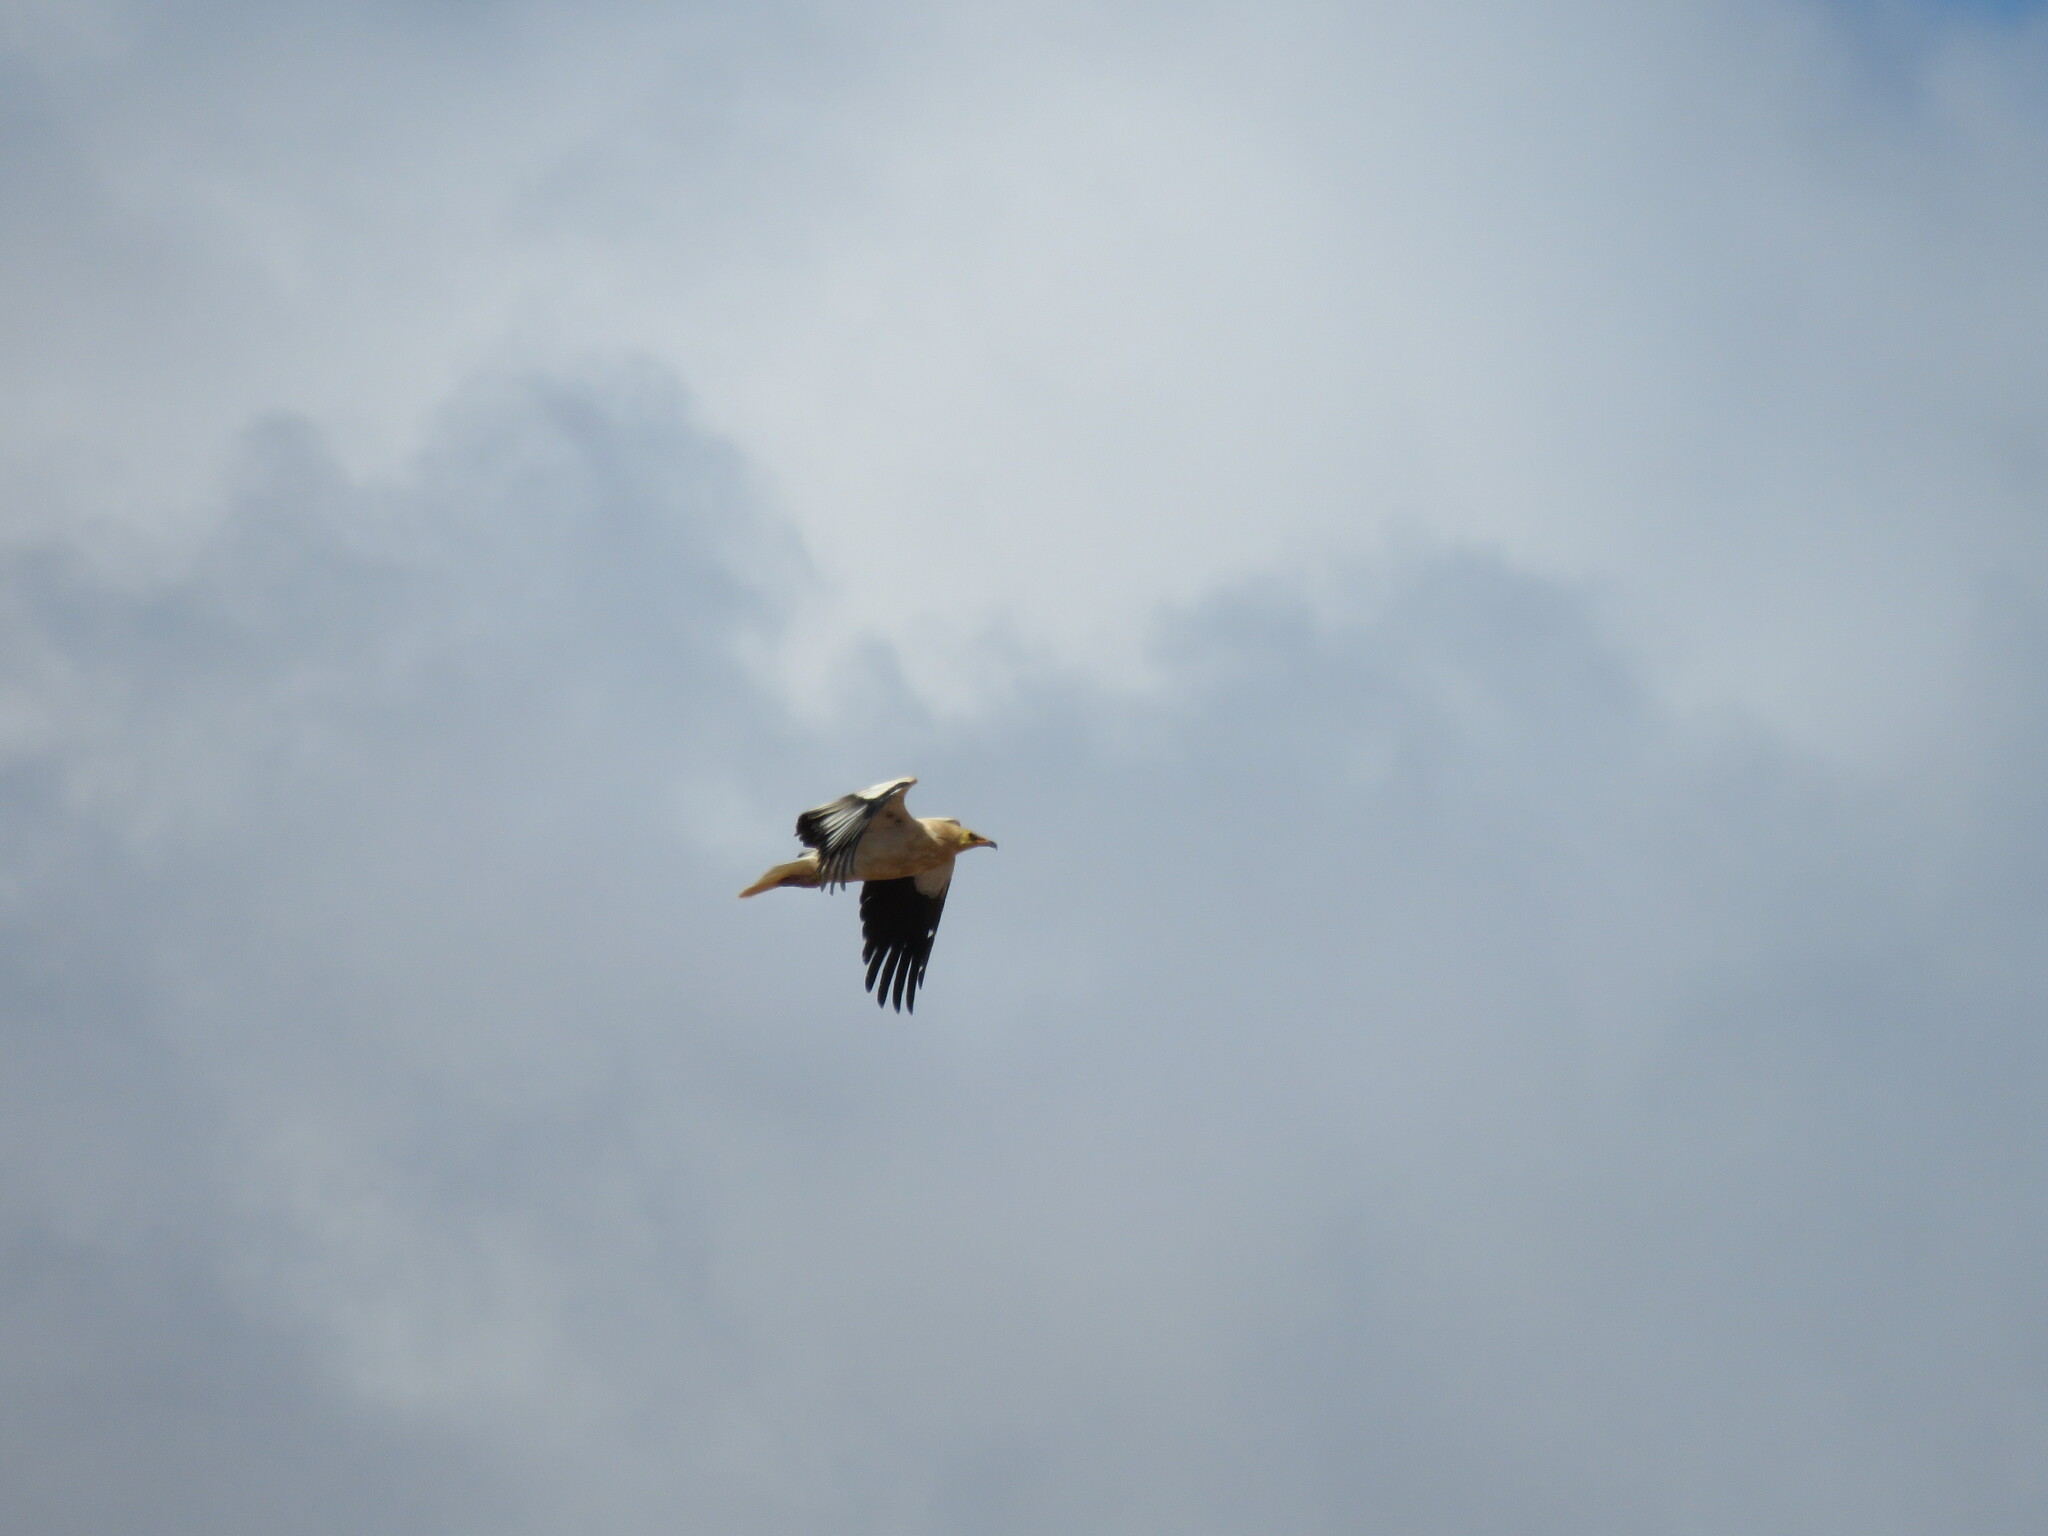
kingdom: Animalia
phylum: Chordata
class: Aves
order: Accipitriformes
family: Accipitridae
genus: Neophron
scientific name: Neophron percnopterus
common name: Egyptian vulture
